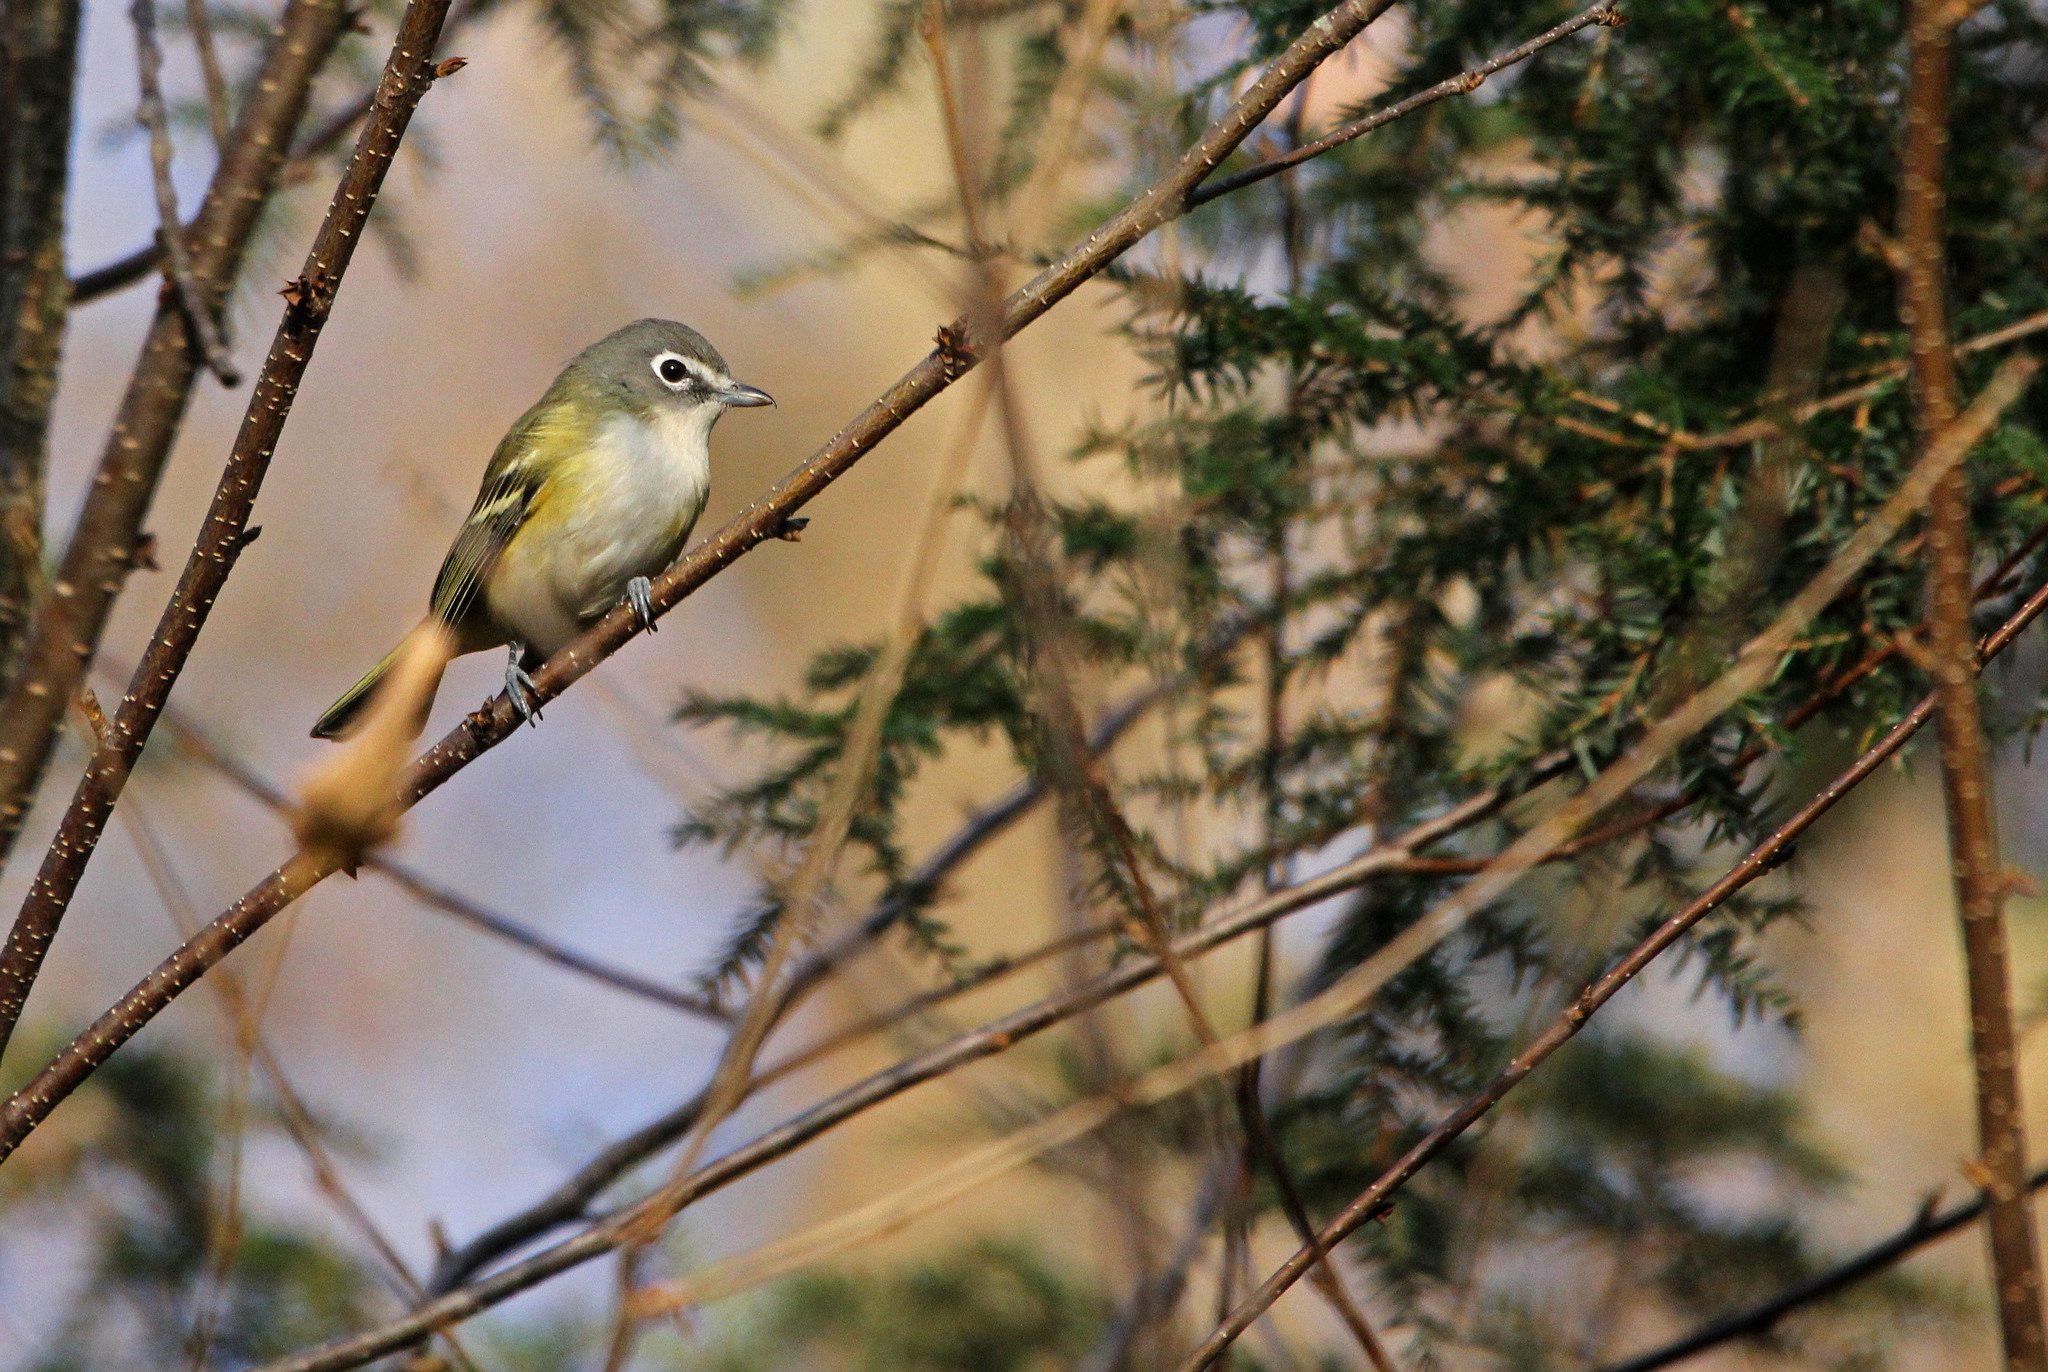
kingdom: Animalia
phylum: Chordata
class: Aves
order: Passeriformes
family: Vireonidae
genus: Vireo
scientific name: Vireo solitarius
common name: Blue-headed vireo
